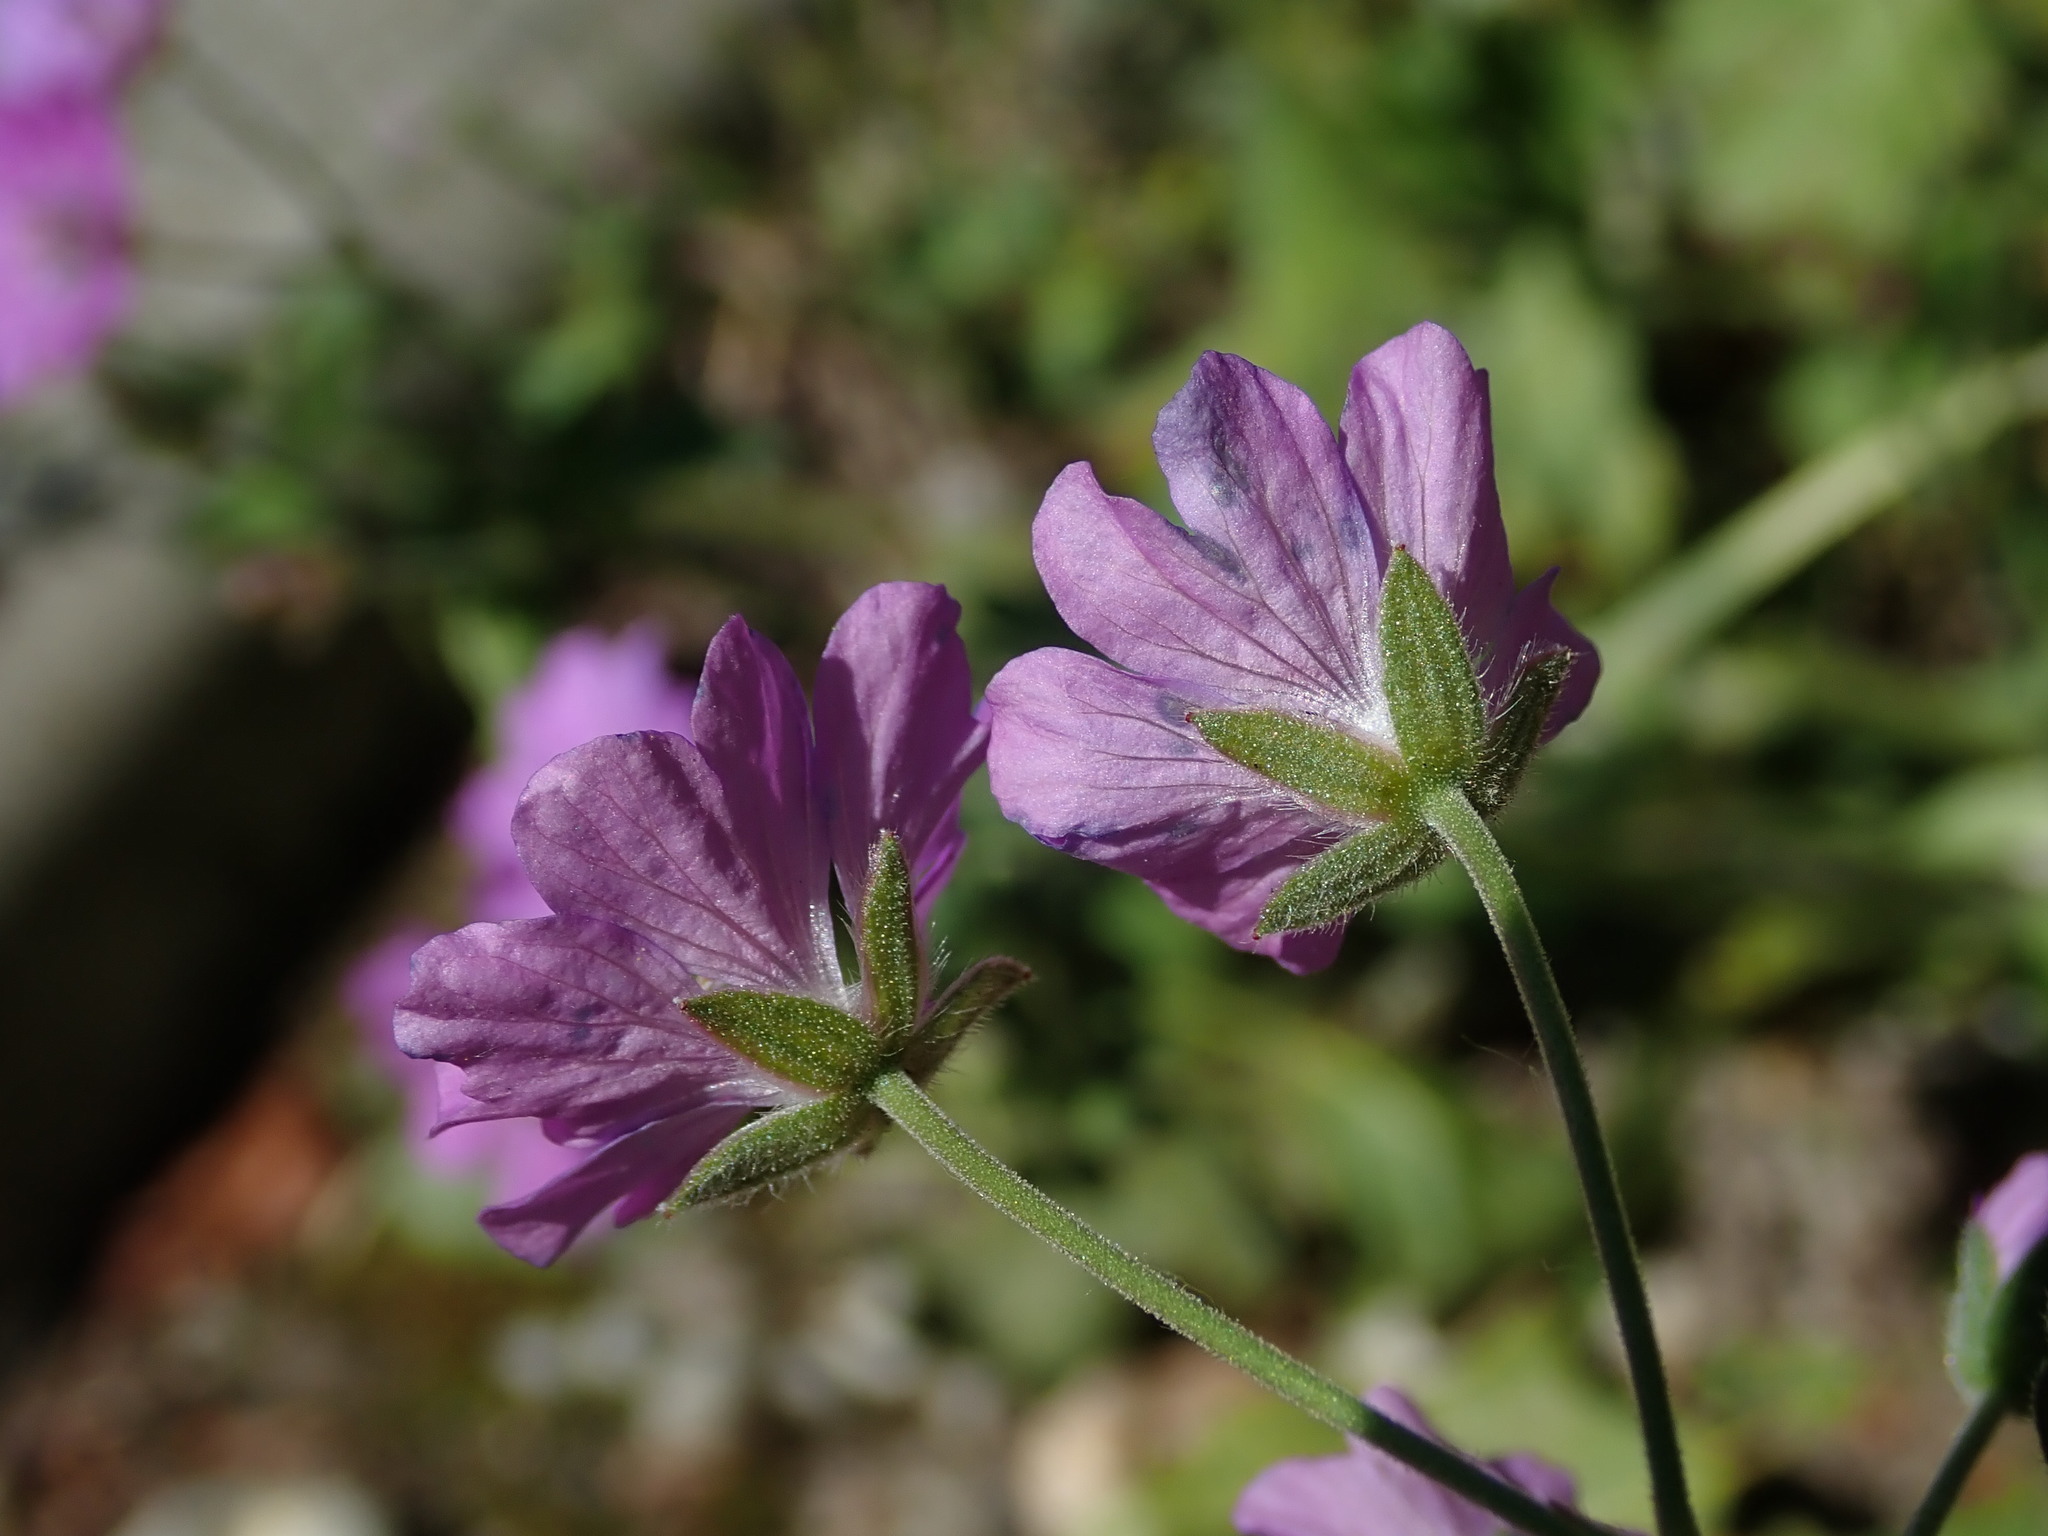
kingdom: Plantae
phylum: Tracheophyta
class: Magnoliopsida
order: Geraniales
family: Geraniaceae
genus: Geranium
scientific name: Geranium pyrenaicum
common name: Hedgerow crane's-bill
